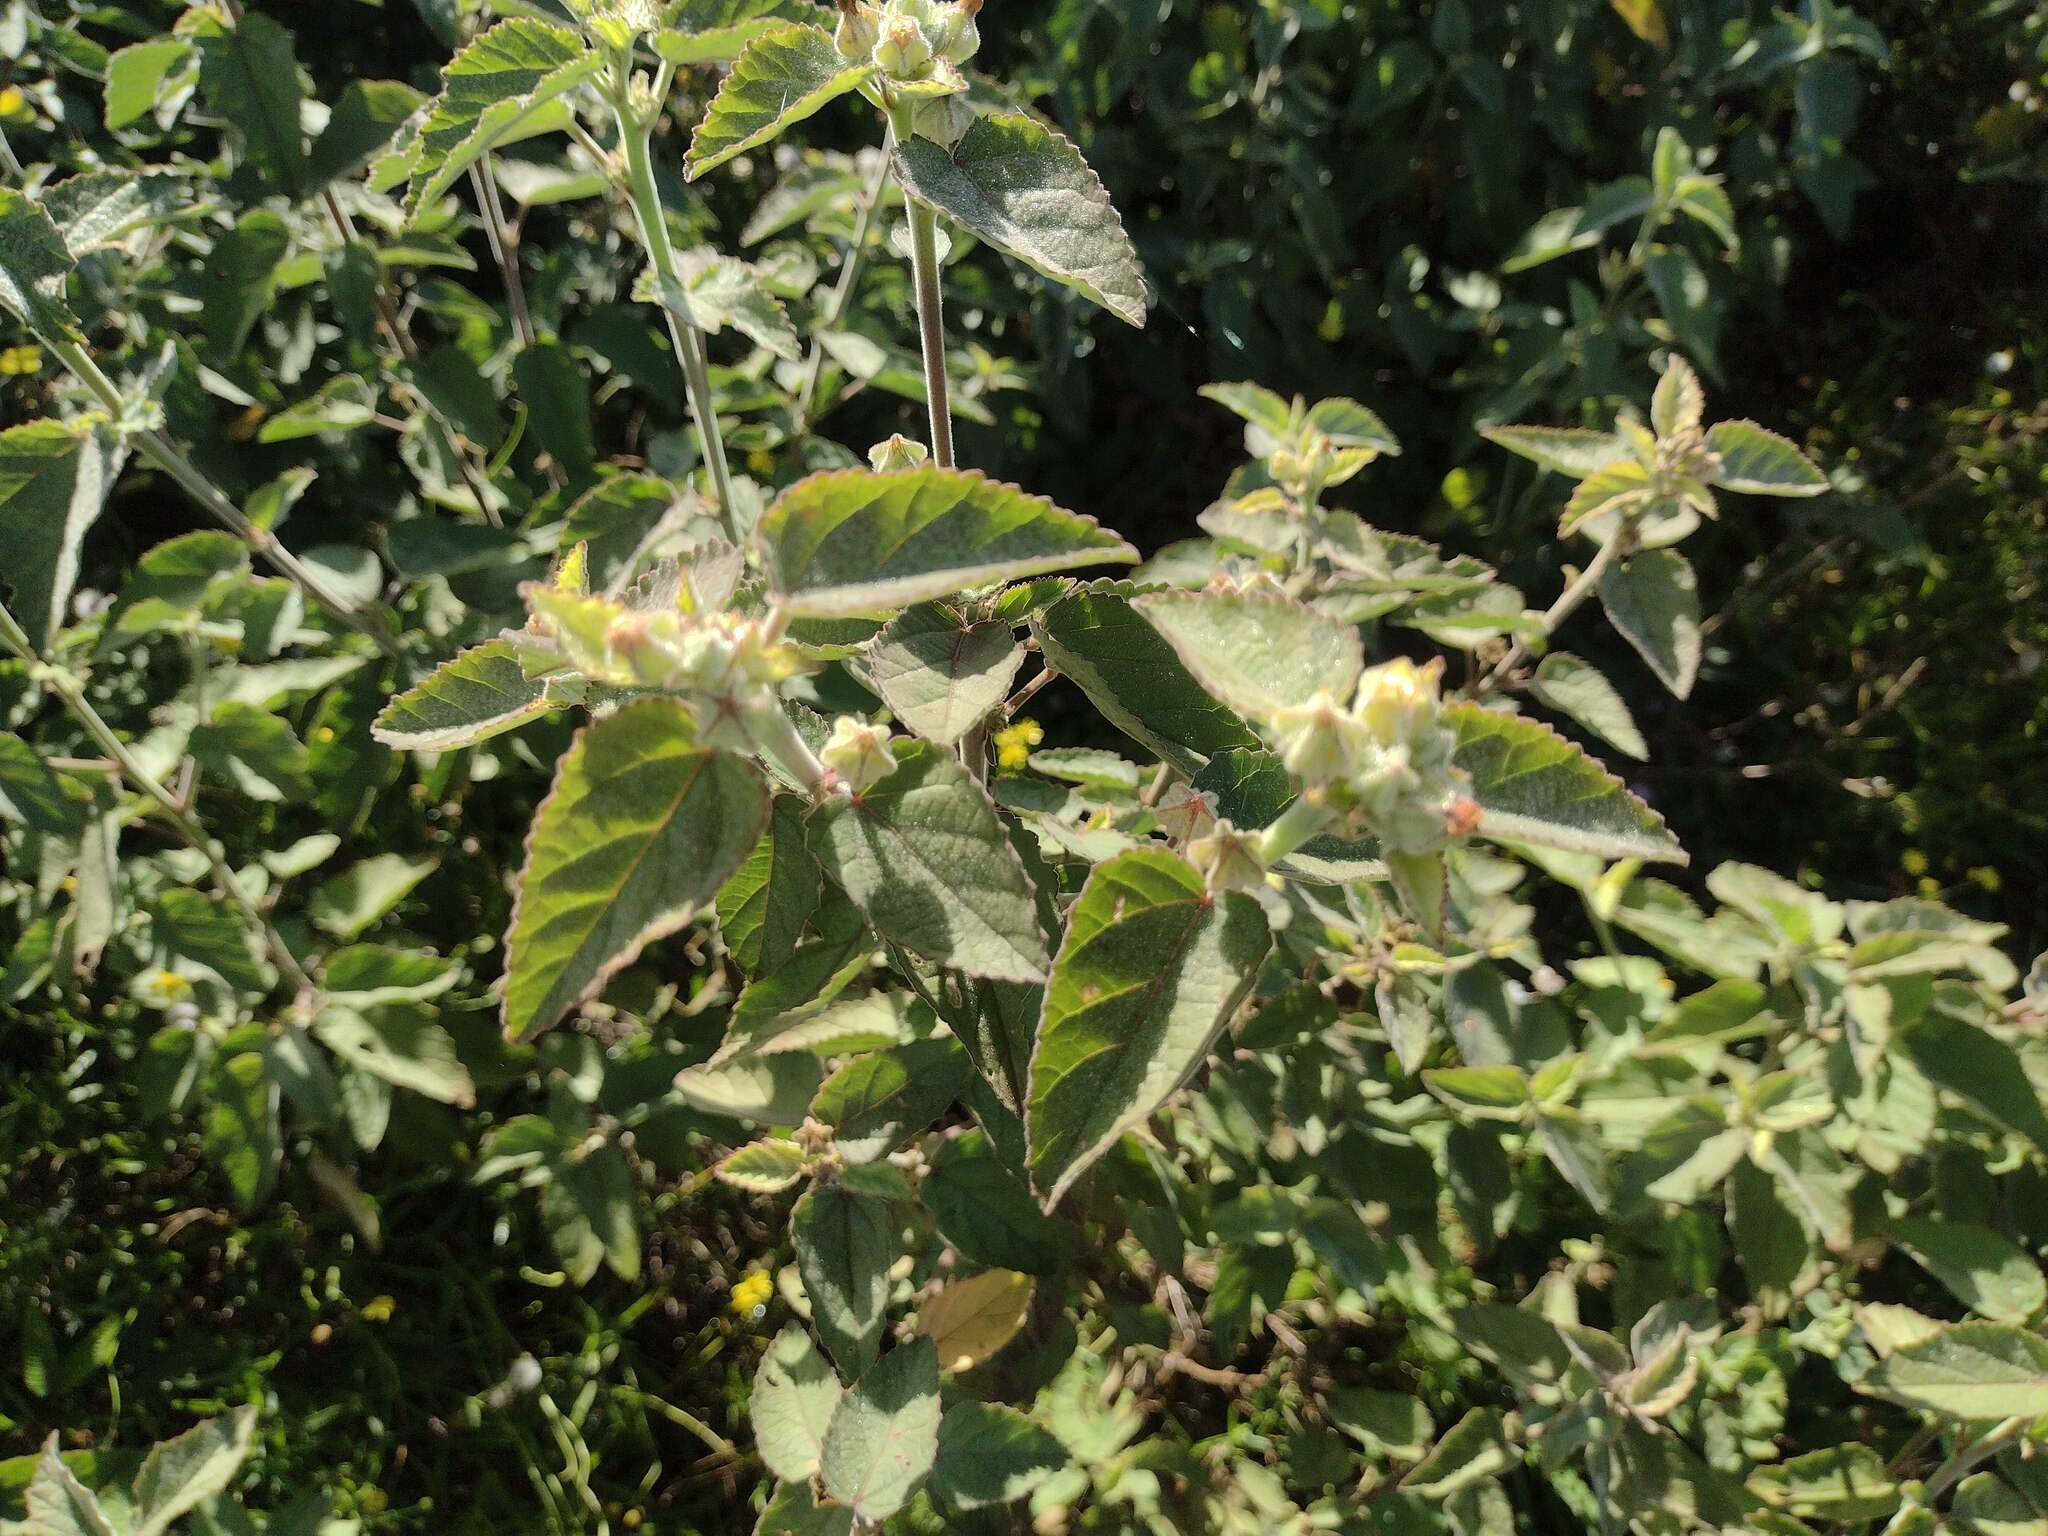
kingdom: Plantae
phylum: Tracheophyta
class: Magnoliopsida
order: Malvales
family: Malvaceae
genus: Sida
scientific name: Sida cordifolia
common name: Ilima
